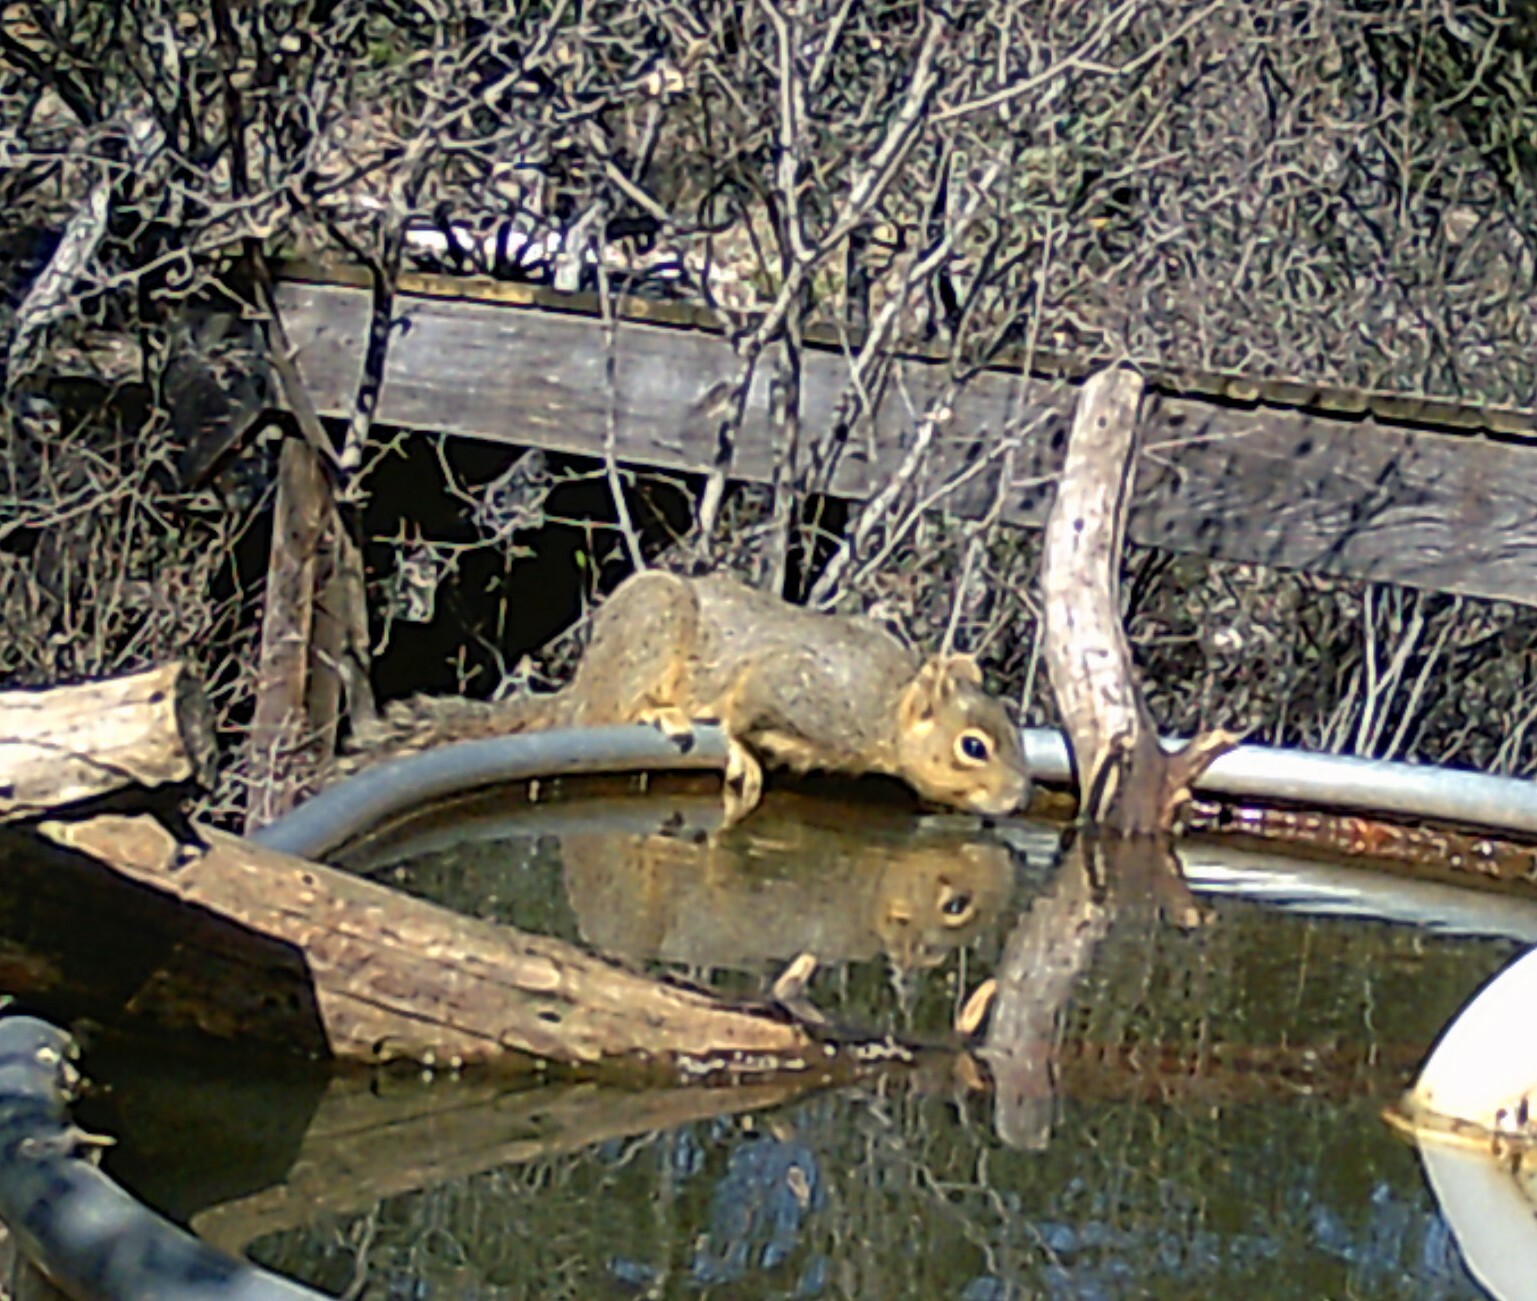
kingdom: Animalia
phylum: Chordata
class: Mammalia
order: Rodentia
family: Sciuridae
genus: Sciurus
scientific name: Sciurus niger
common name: Fox squirrel
